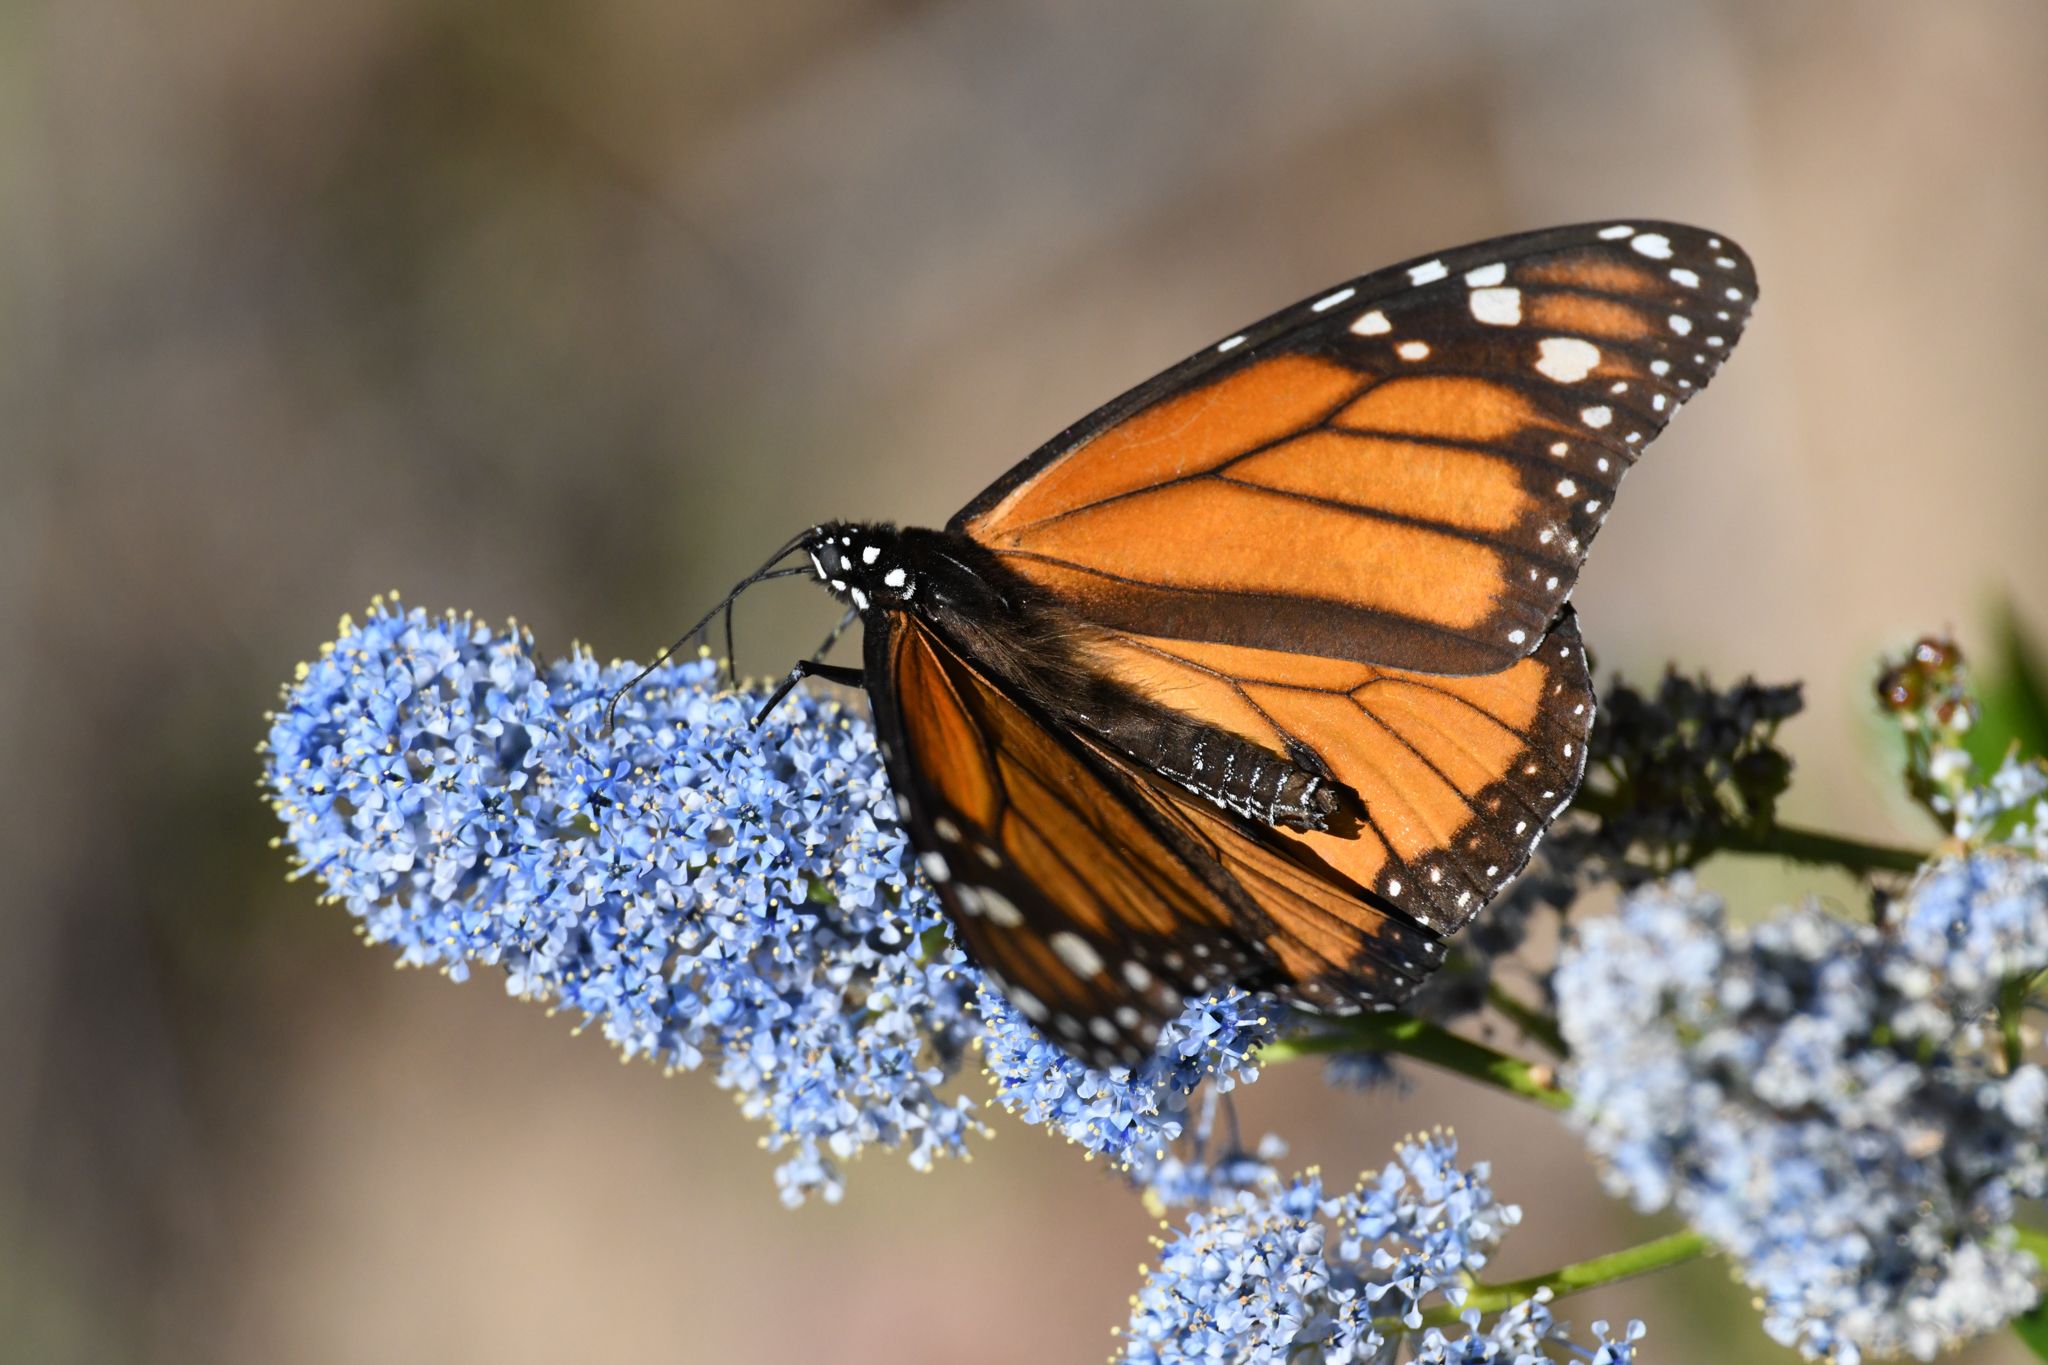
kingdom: Animalia
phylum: Arthropoda
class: Insecta
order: Lepidoptera
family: Nymphalidae
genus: Danaus
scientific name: Danaus plexippus
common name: Monarch
